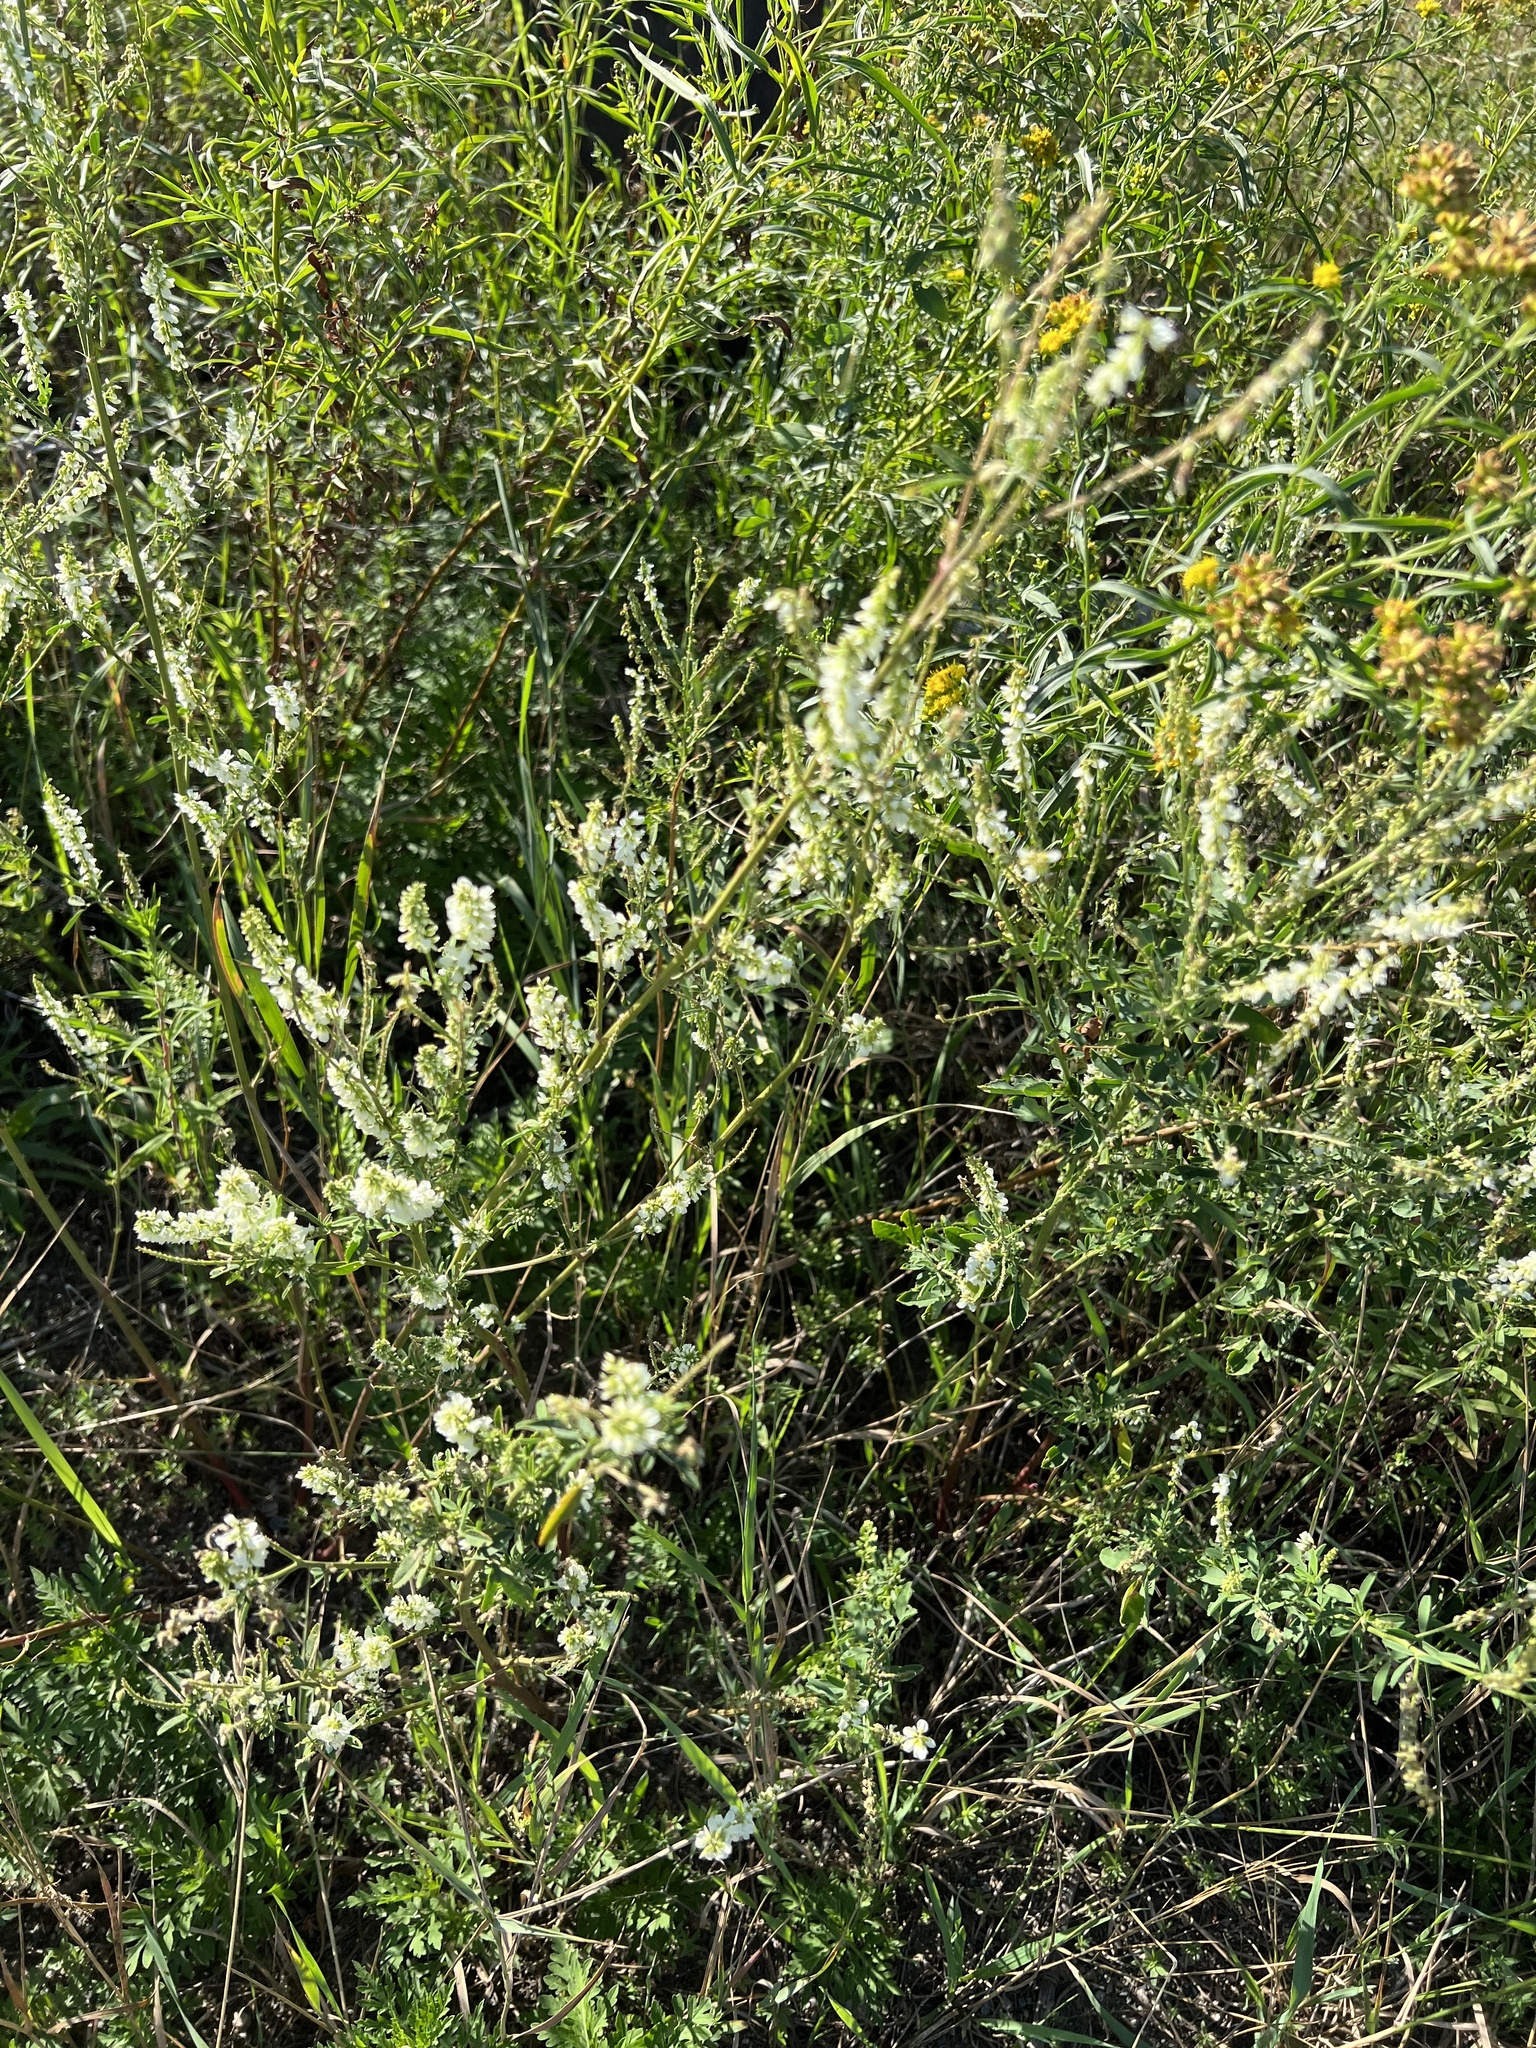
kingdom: Plantae
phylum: Tracheophyta
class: Magnoliopsida
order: Fabales
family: Fabaceae
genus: Melilotus
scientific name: Melilotus albus
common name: White melilot
